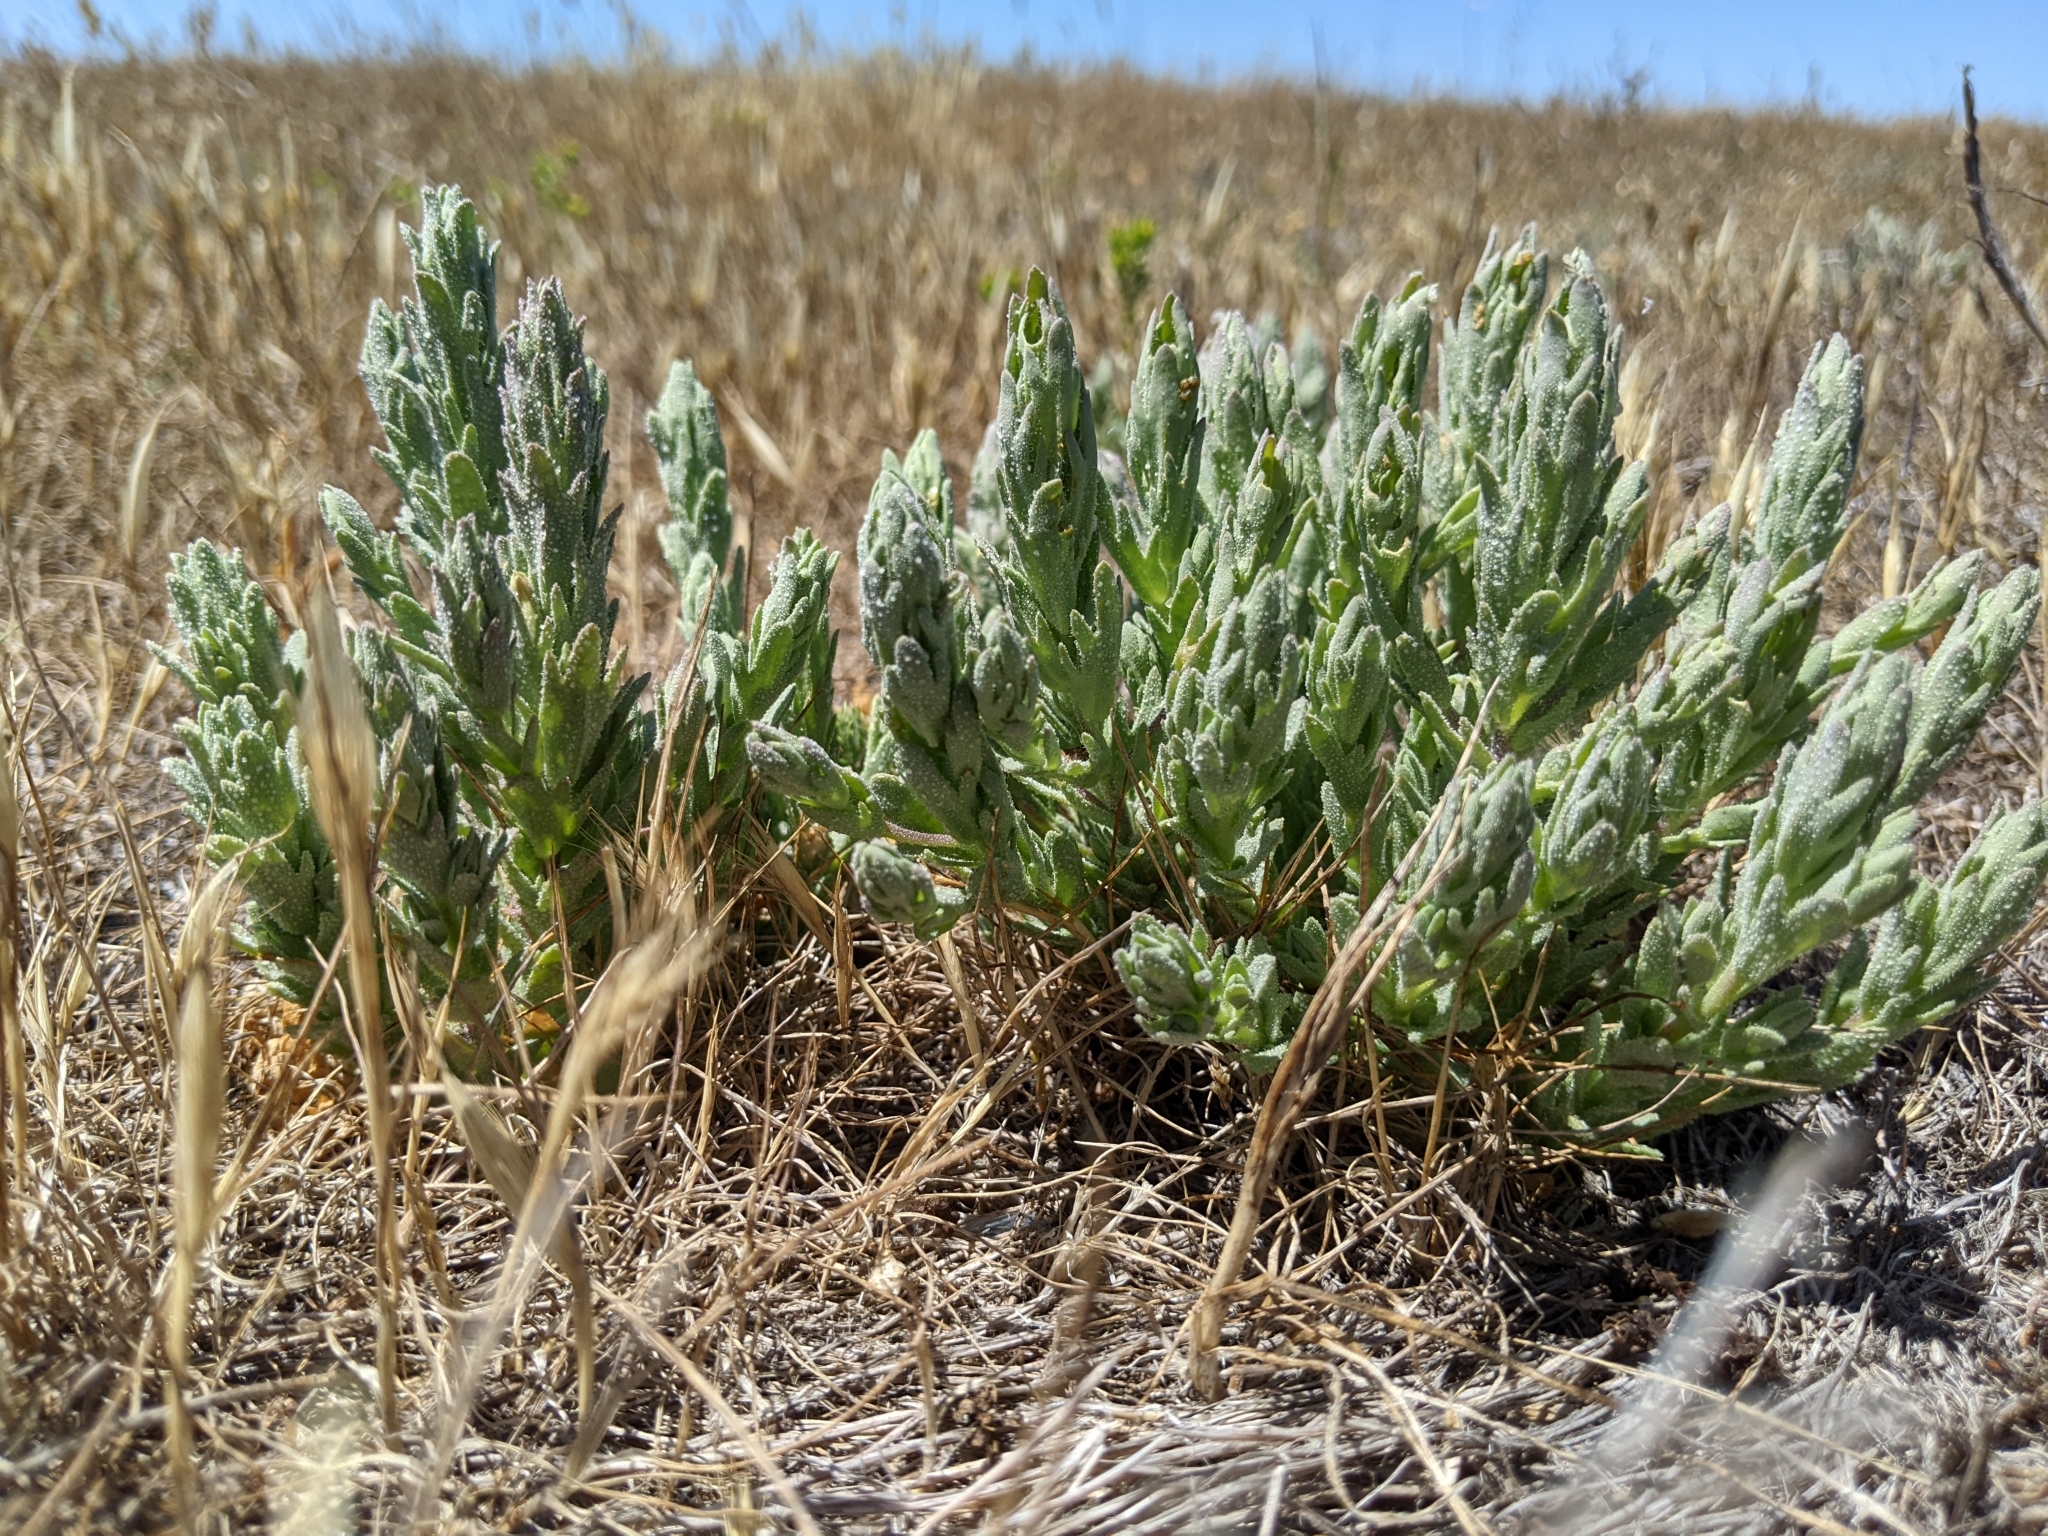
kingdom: Plantae
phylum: Tracheophyta
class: Magnoliopsida
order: Lamiales
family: Orobanchaceae
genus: Chloropyron
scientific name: Chloropyron palmatum
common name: Palmate salty bird's-beak
